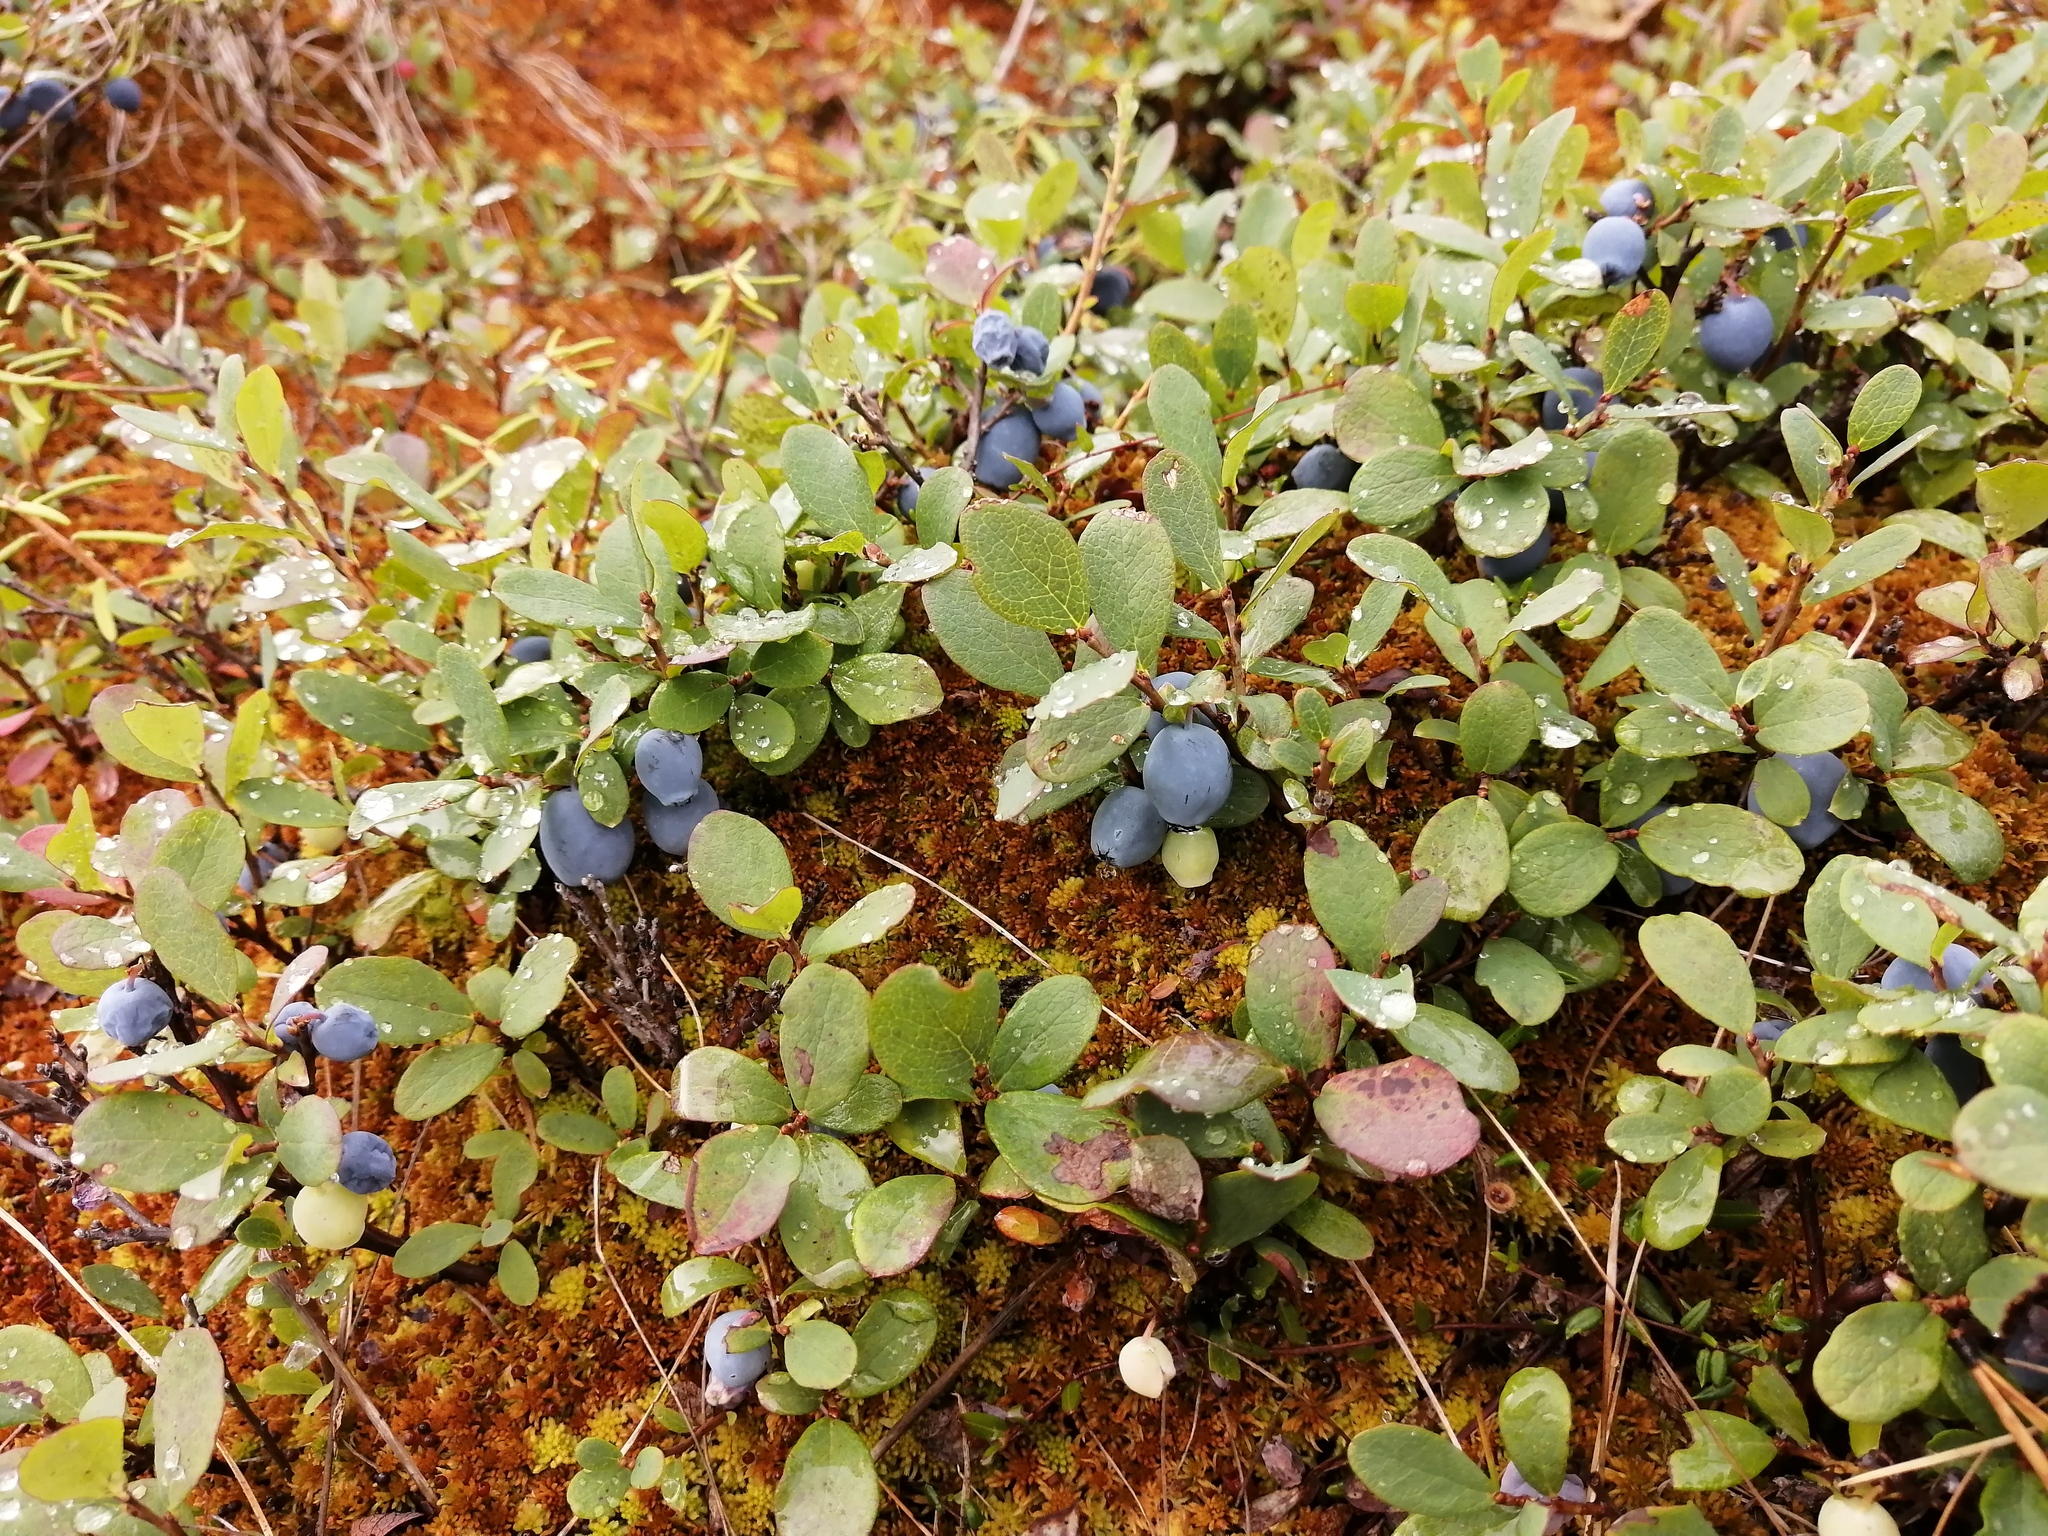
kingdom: Plantae
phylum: Tracheophyta
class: Magnoliopsida
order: Ericales
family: Ericaceae
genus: Vaccinium
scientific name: Vaccinium uliginosum
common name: Bog bilberry
